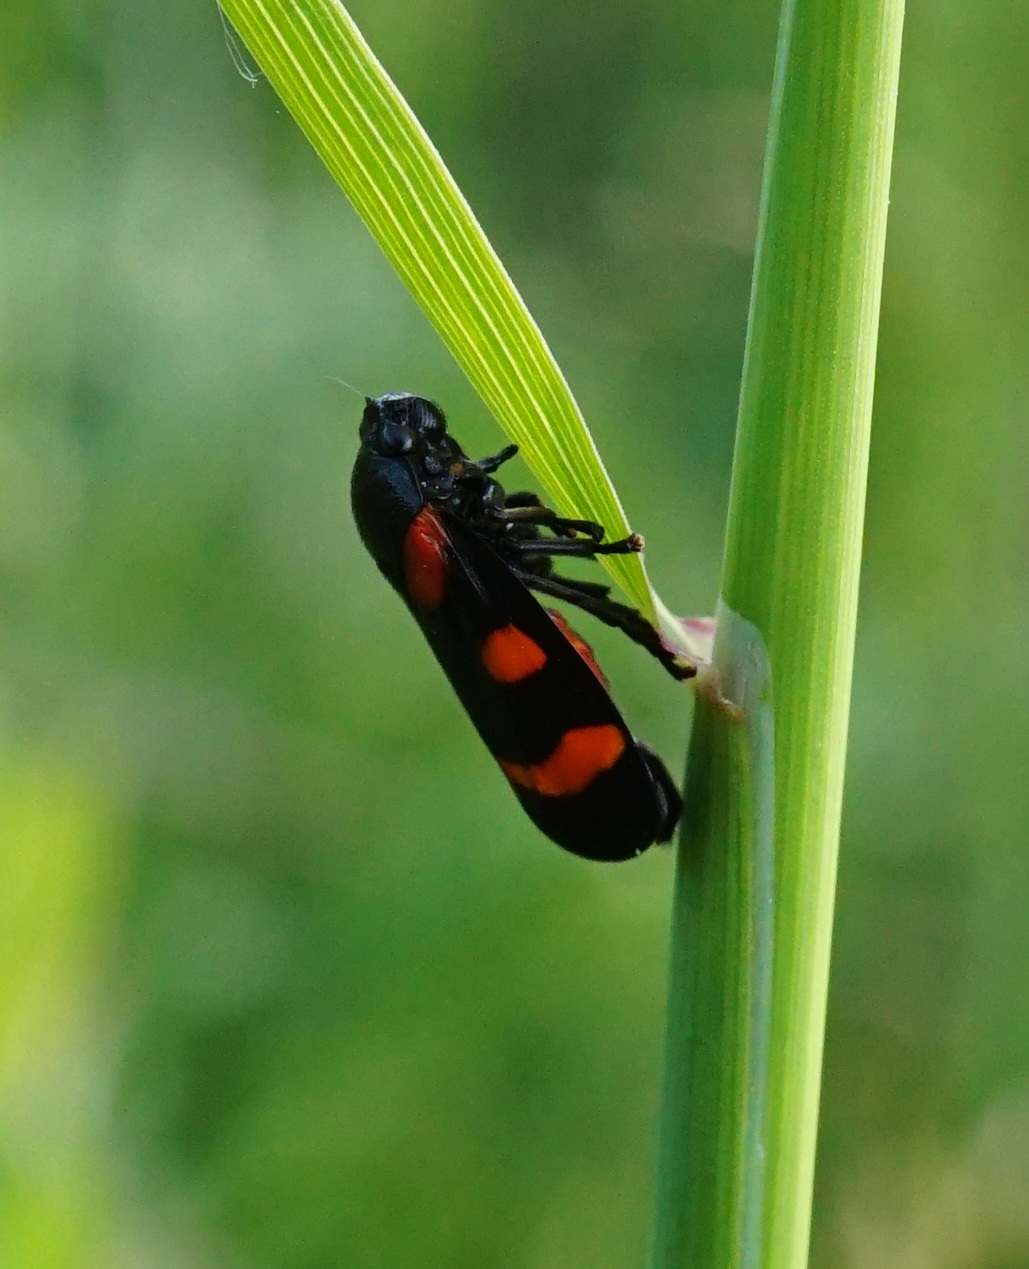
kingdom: Animalia
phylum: Arthropoda
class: Insecta
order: Hemiptera
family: Cercopidae
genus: Cercopis
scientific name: Cercopis arcuata
